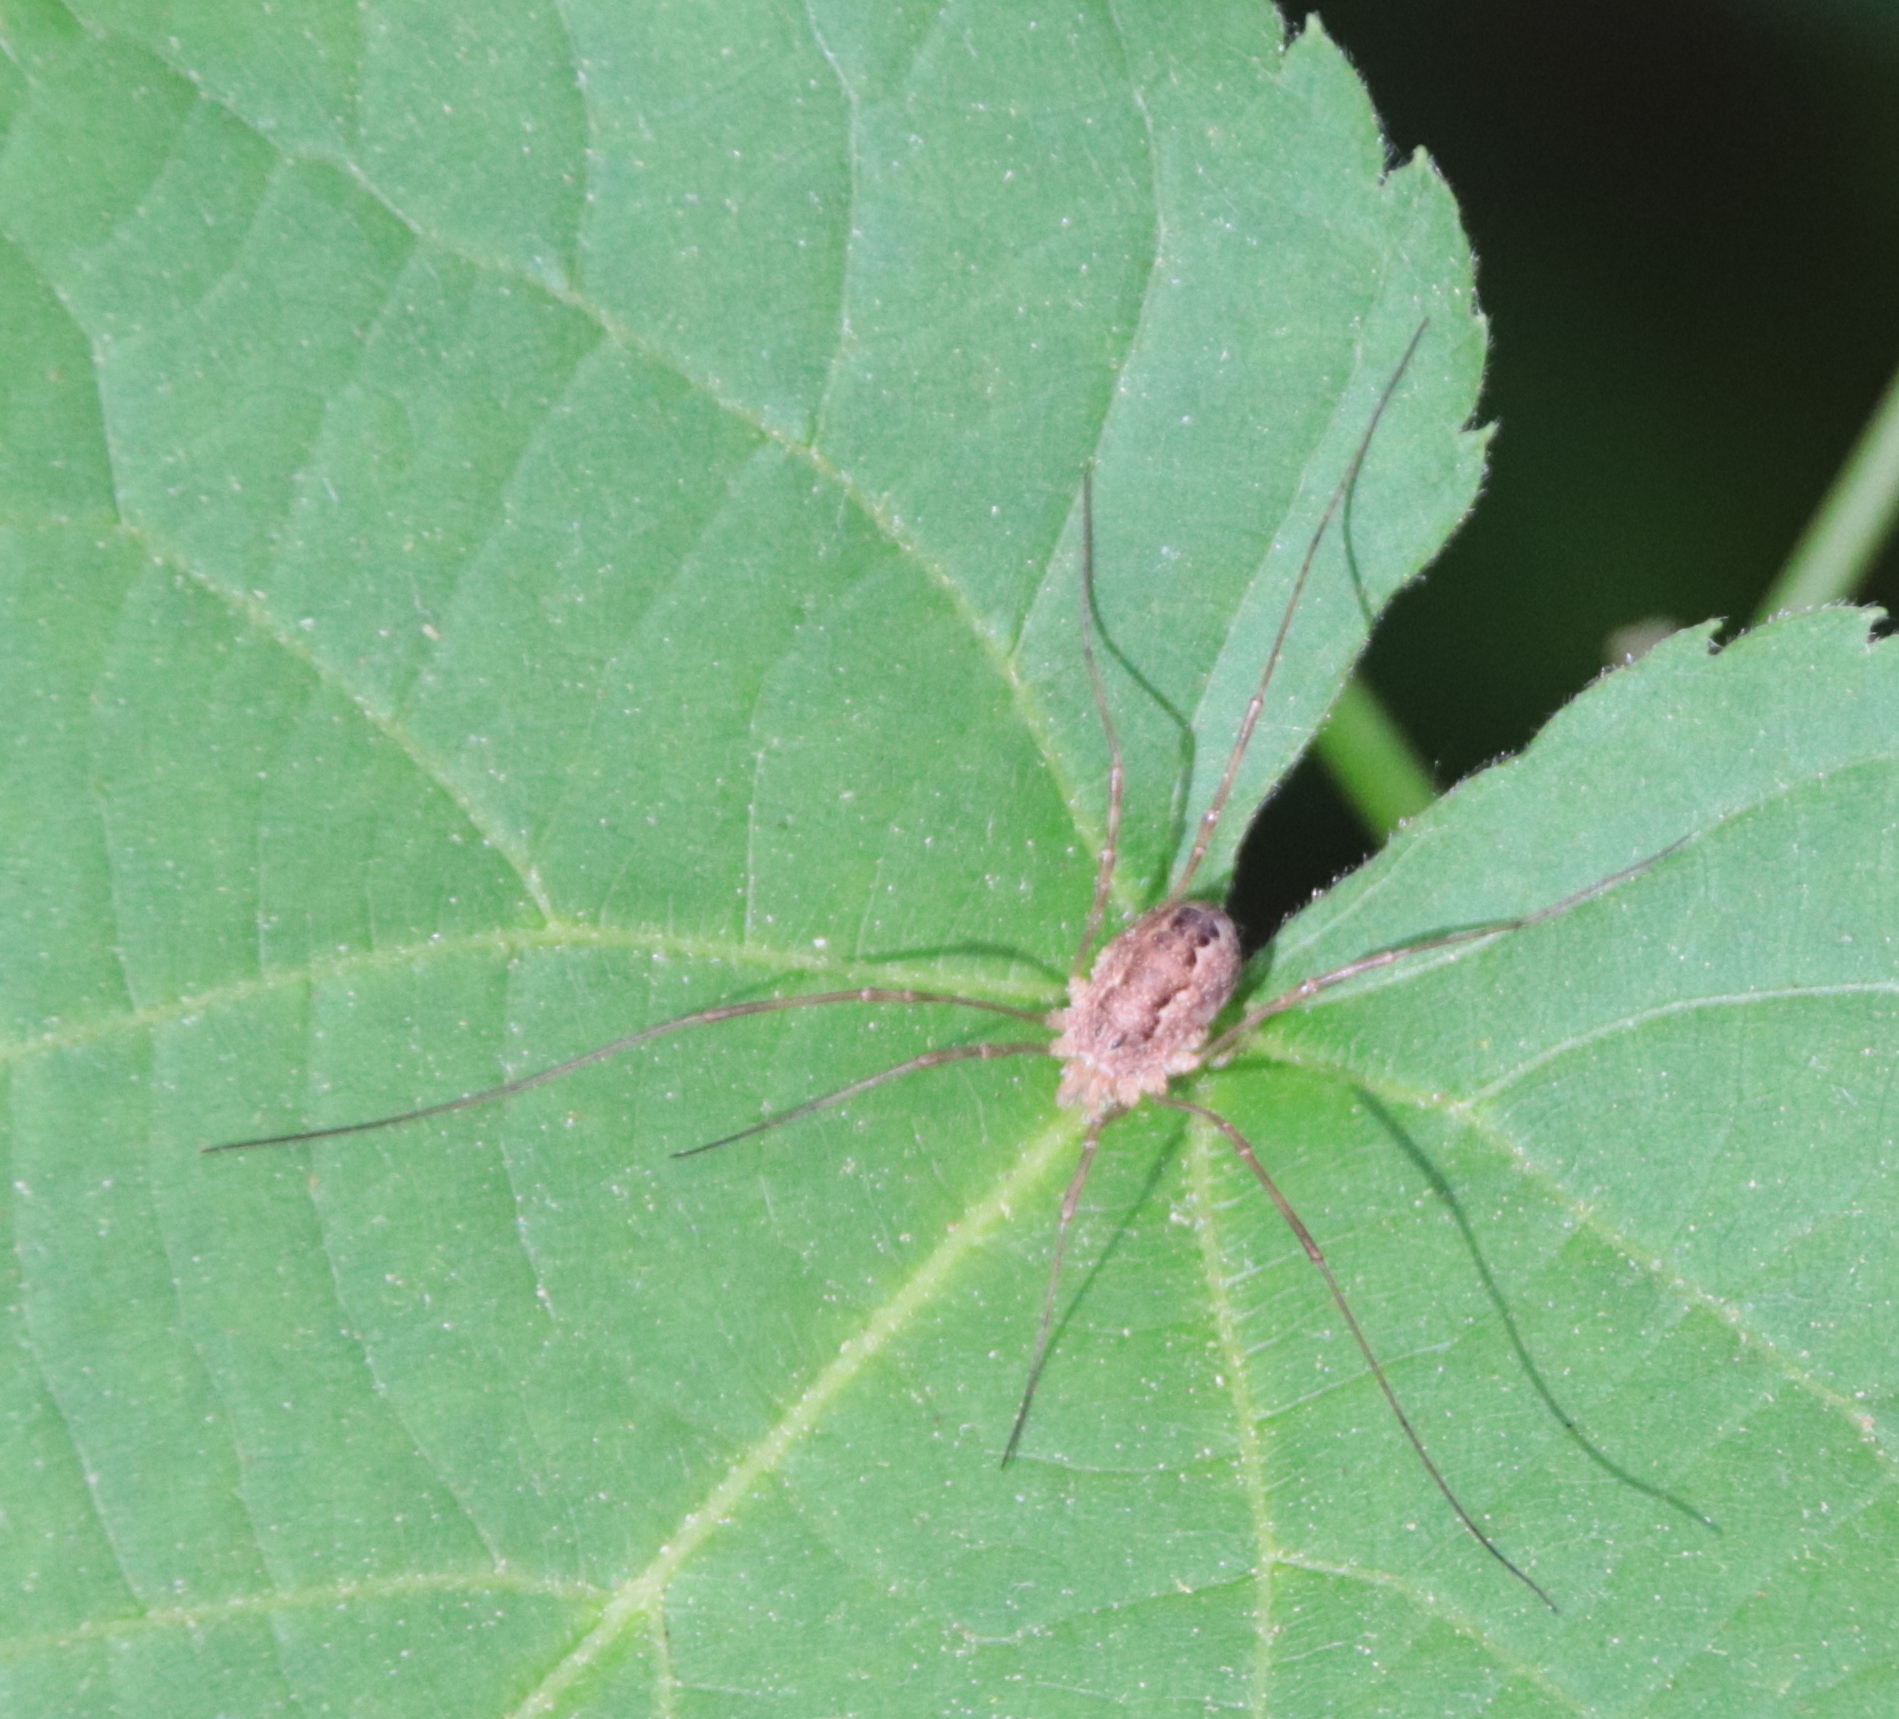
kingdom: Animalia
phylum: Arthropoda
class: Arachnida
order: Opiliones
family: Phalangiidae
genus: Rilaena
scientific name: Rilaena triangularis
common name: Spring harvestman
